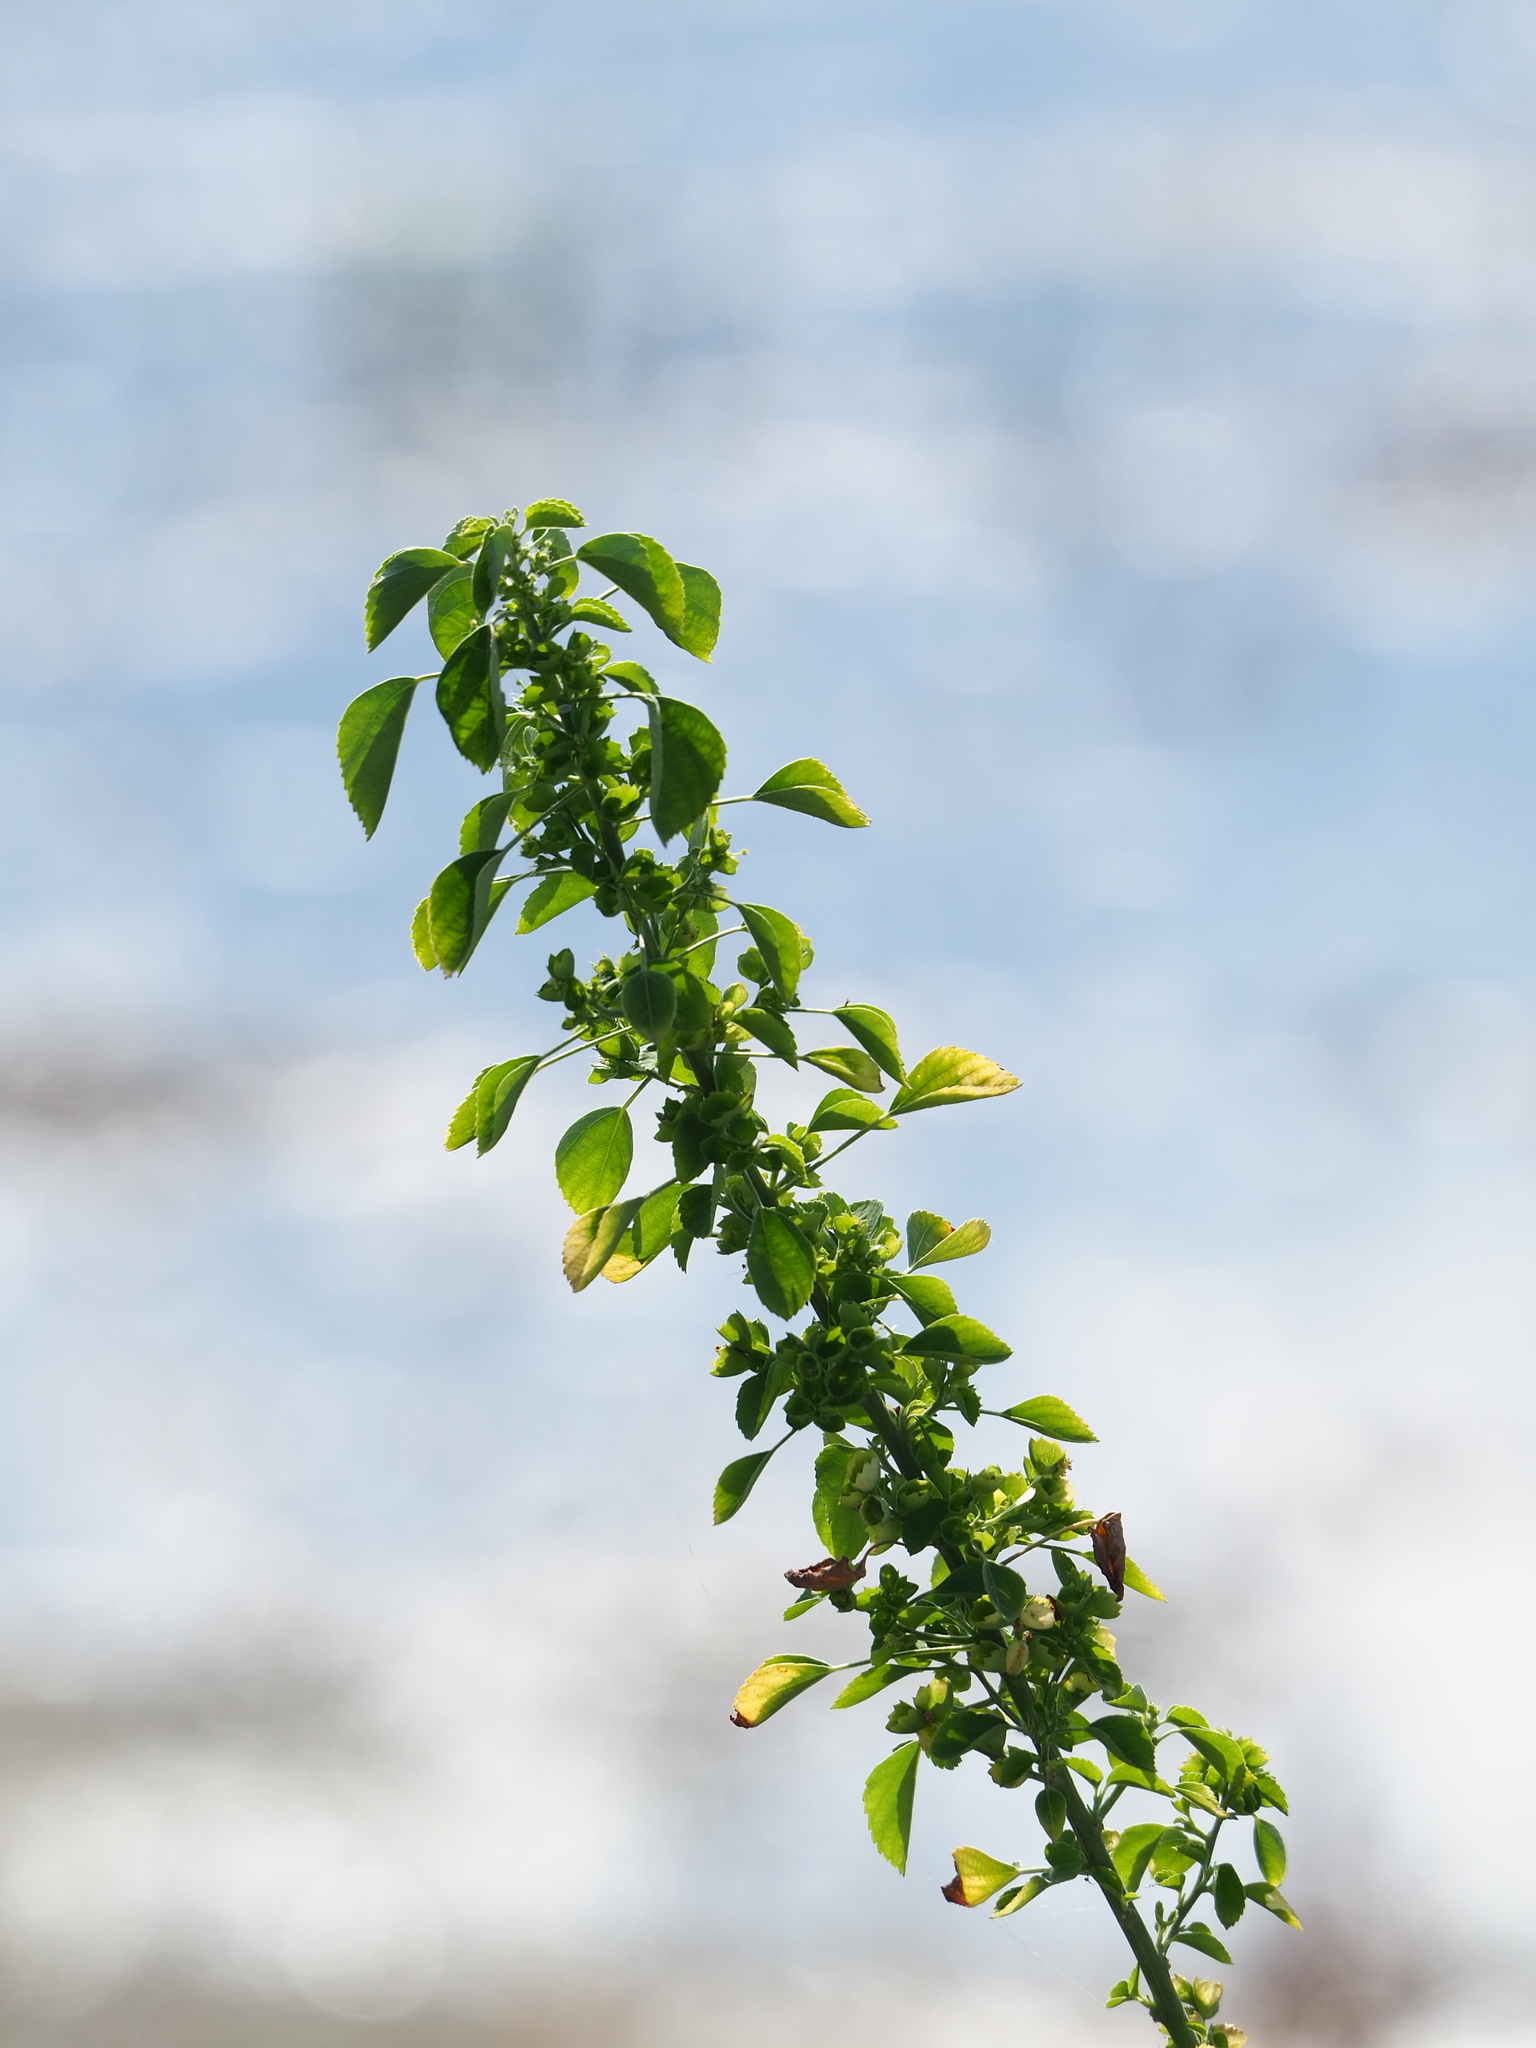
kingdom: Plantae
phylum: Tracheophyta
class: Magnoliopsida
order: Malpighiales
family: Euphorbiaceae
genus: Acalypha
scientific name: Acalypha indica
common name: Indian acalypha
